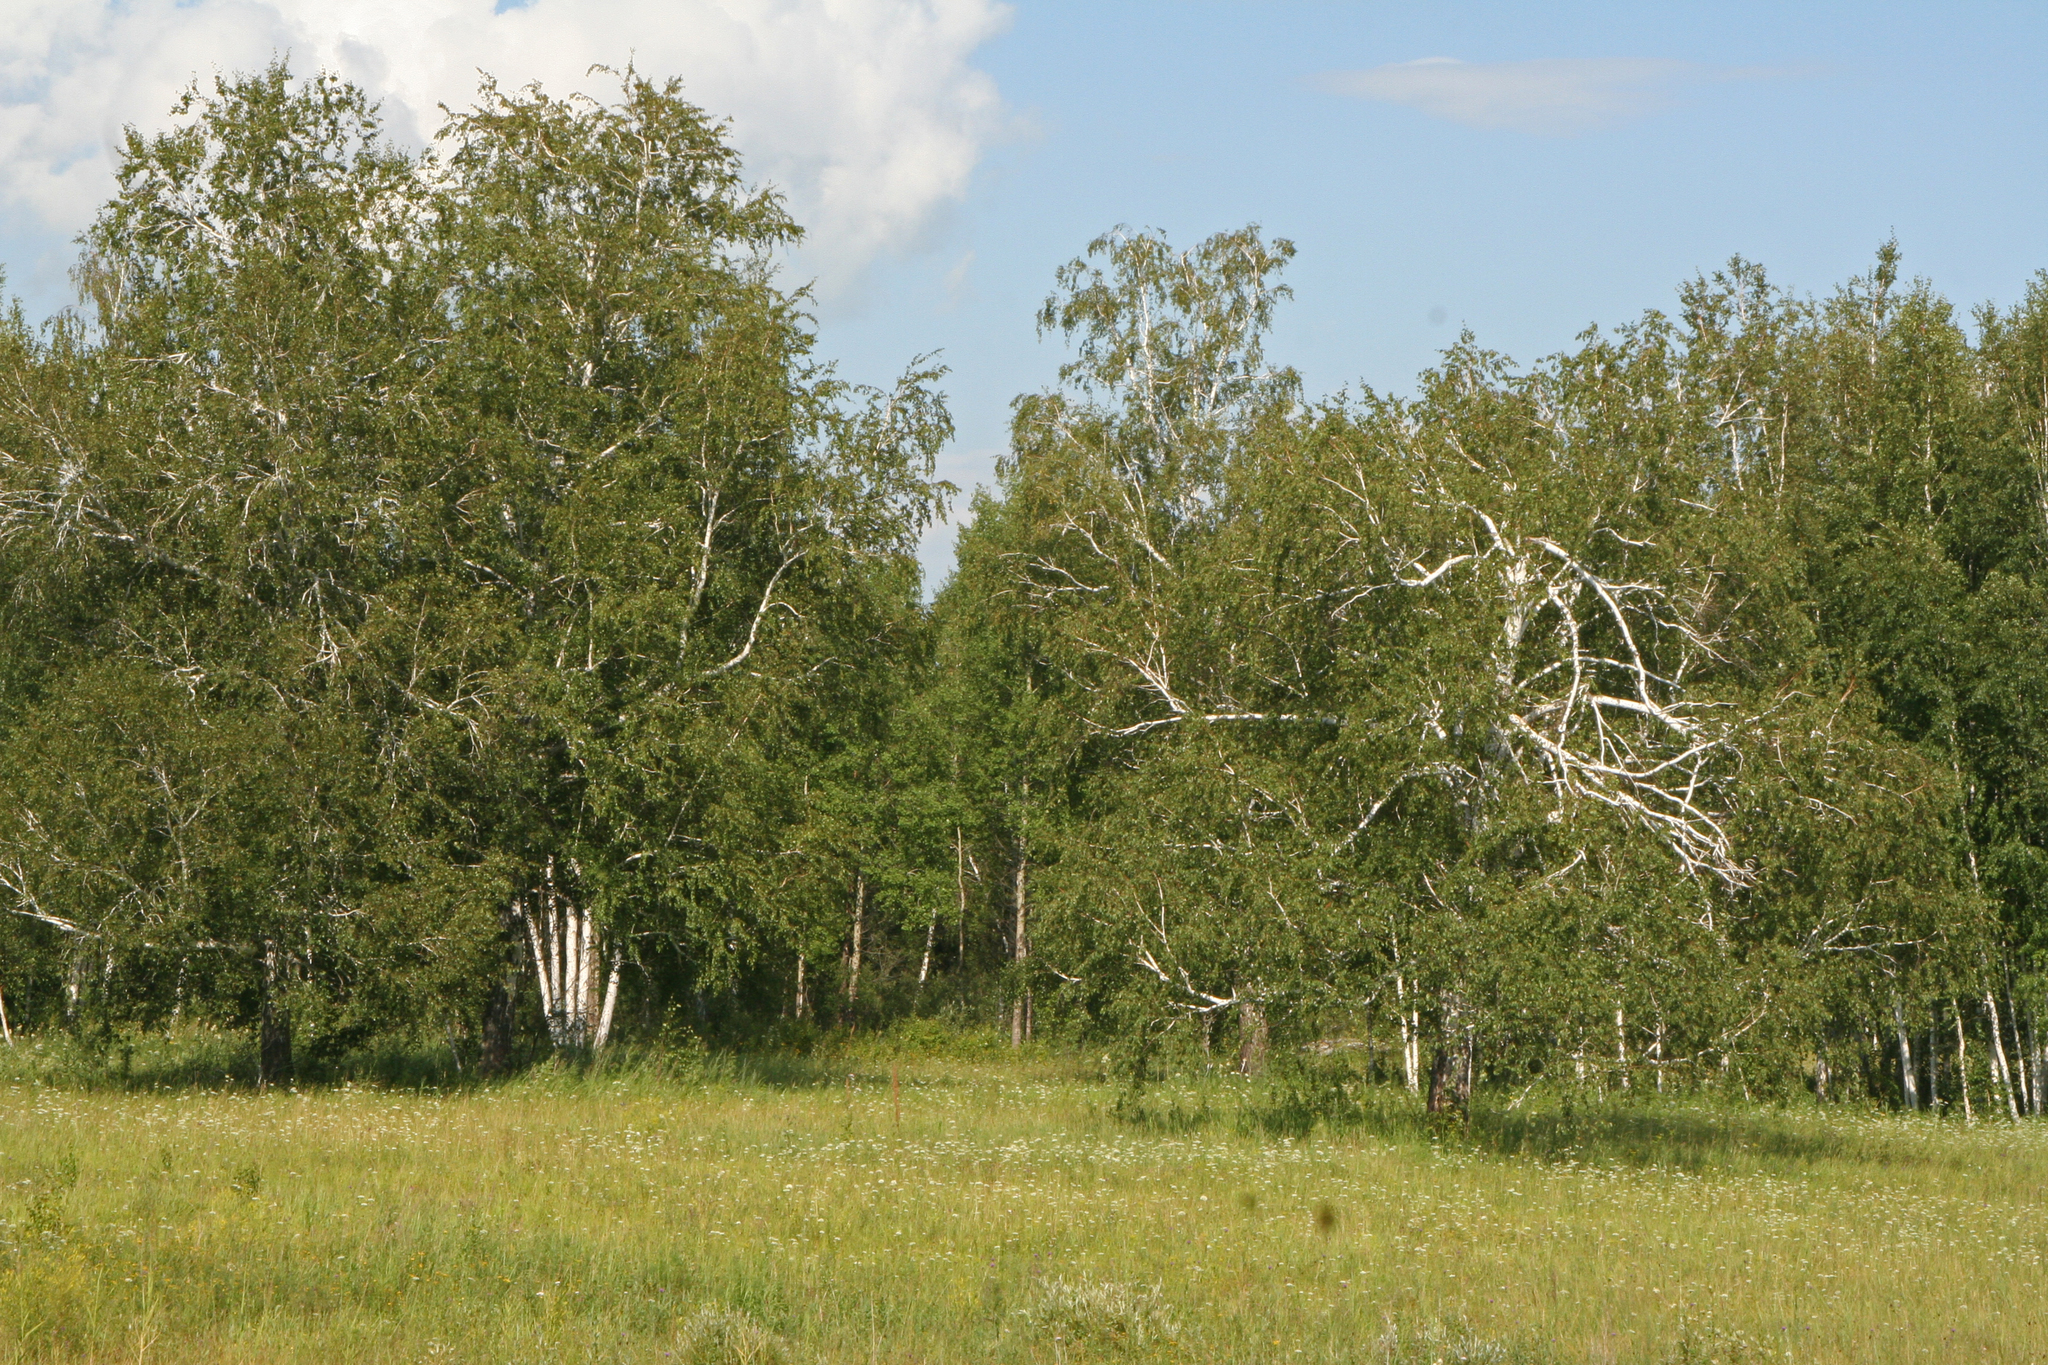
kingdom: Plantae
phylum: Tracheophyta
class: Magnoliopsida
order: Fagales
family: Betulaceae
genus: Betula
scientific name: Betula pendula
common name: Silver birch
